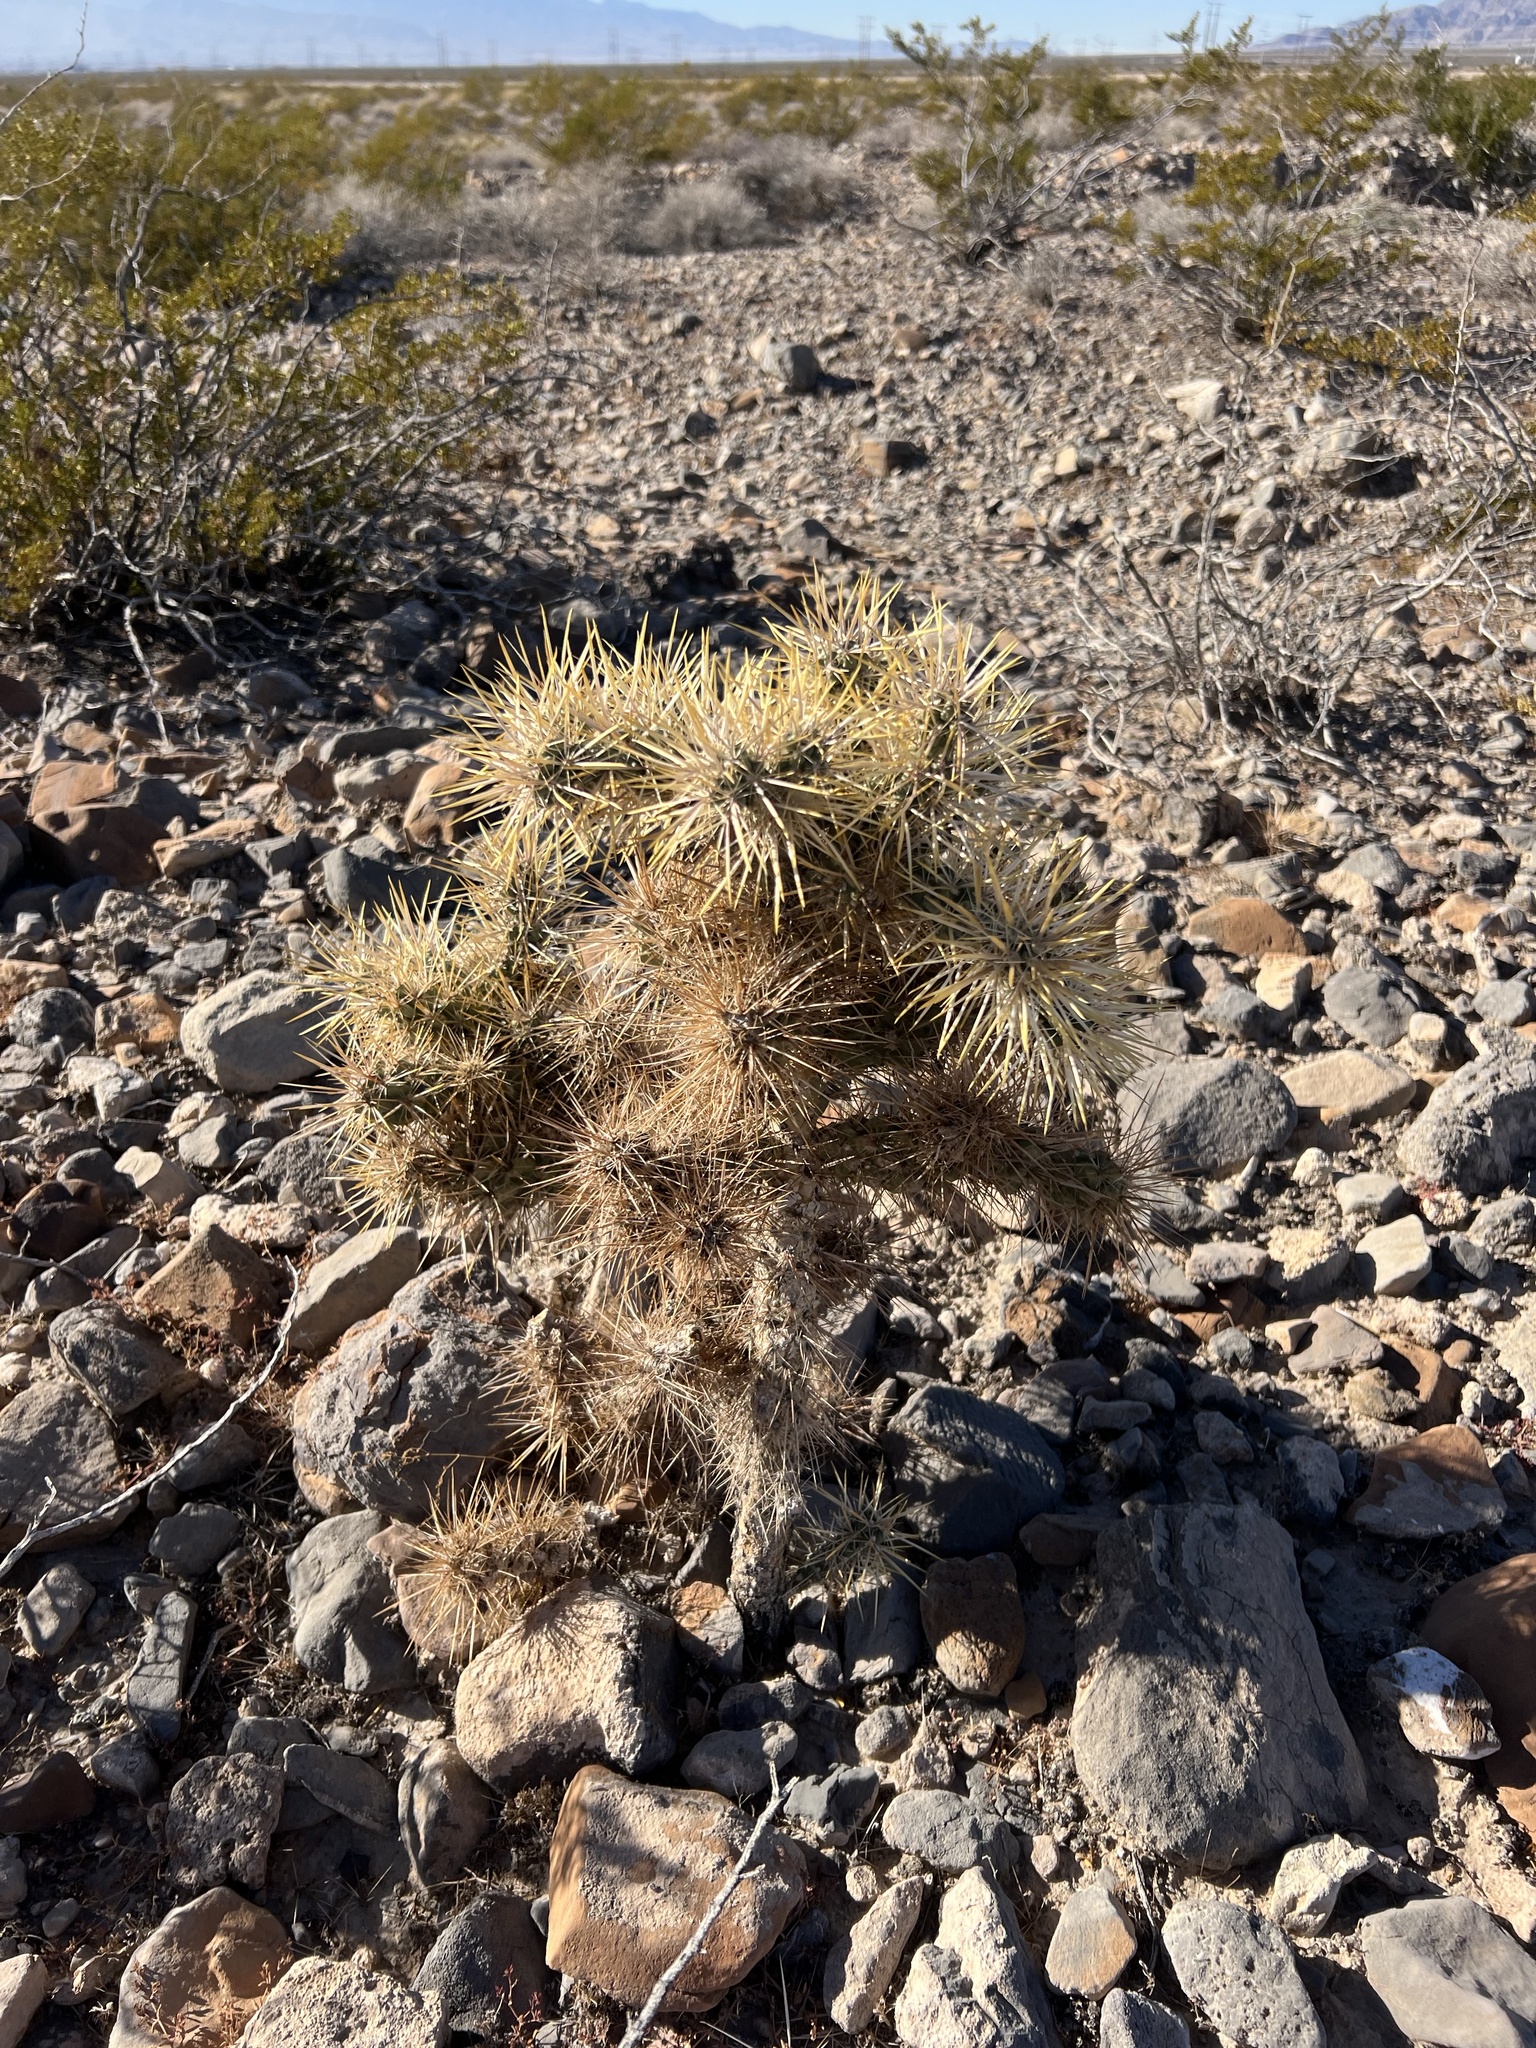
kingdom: Plantae
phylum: Tracheophyta
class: Magnoliopsida
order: Caryophyllales
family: Cactaceae
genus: Cylindropuntia
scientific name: Cylindropuntia echinocarpa
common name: Ground cholla
